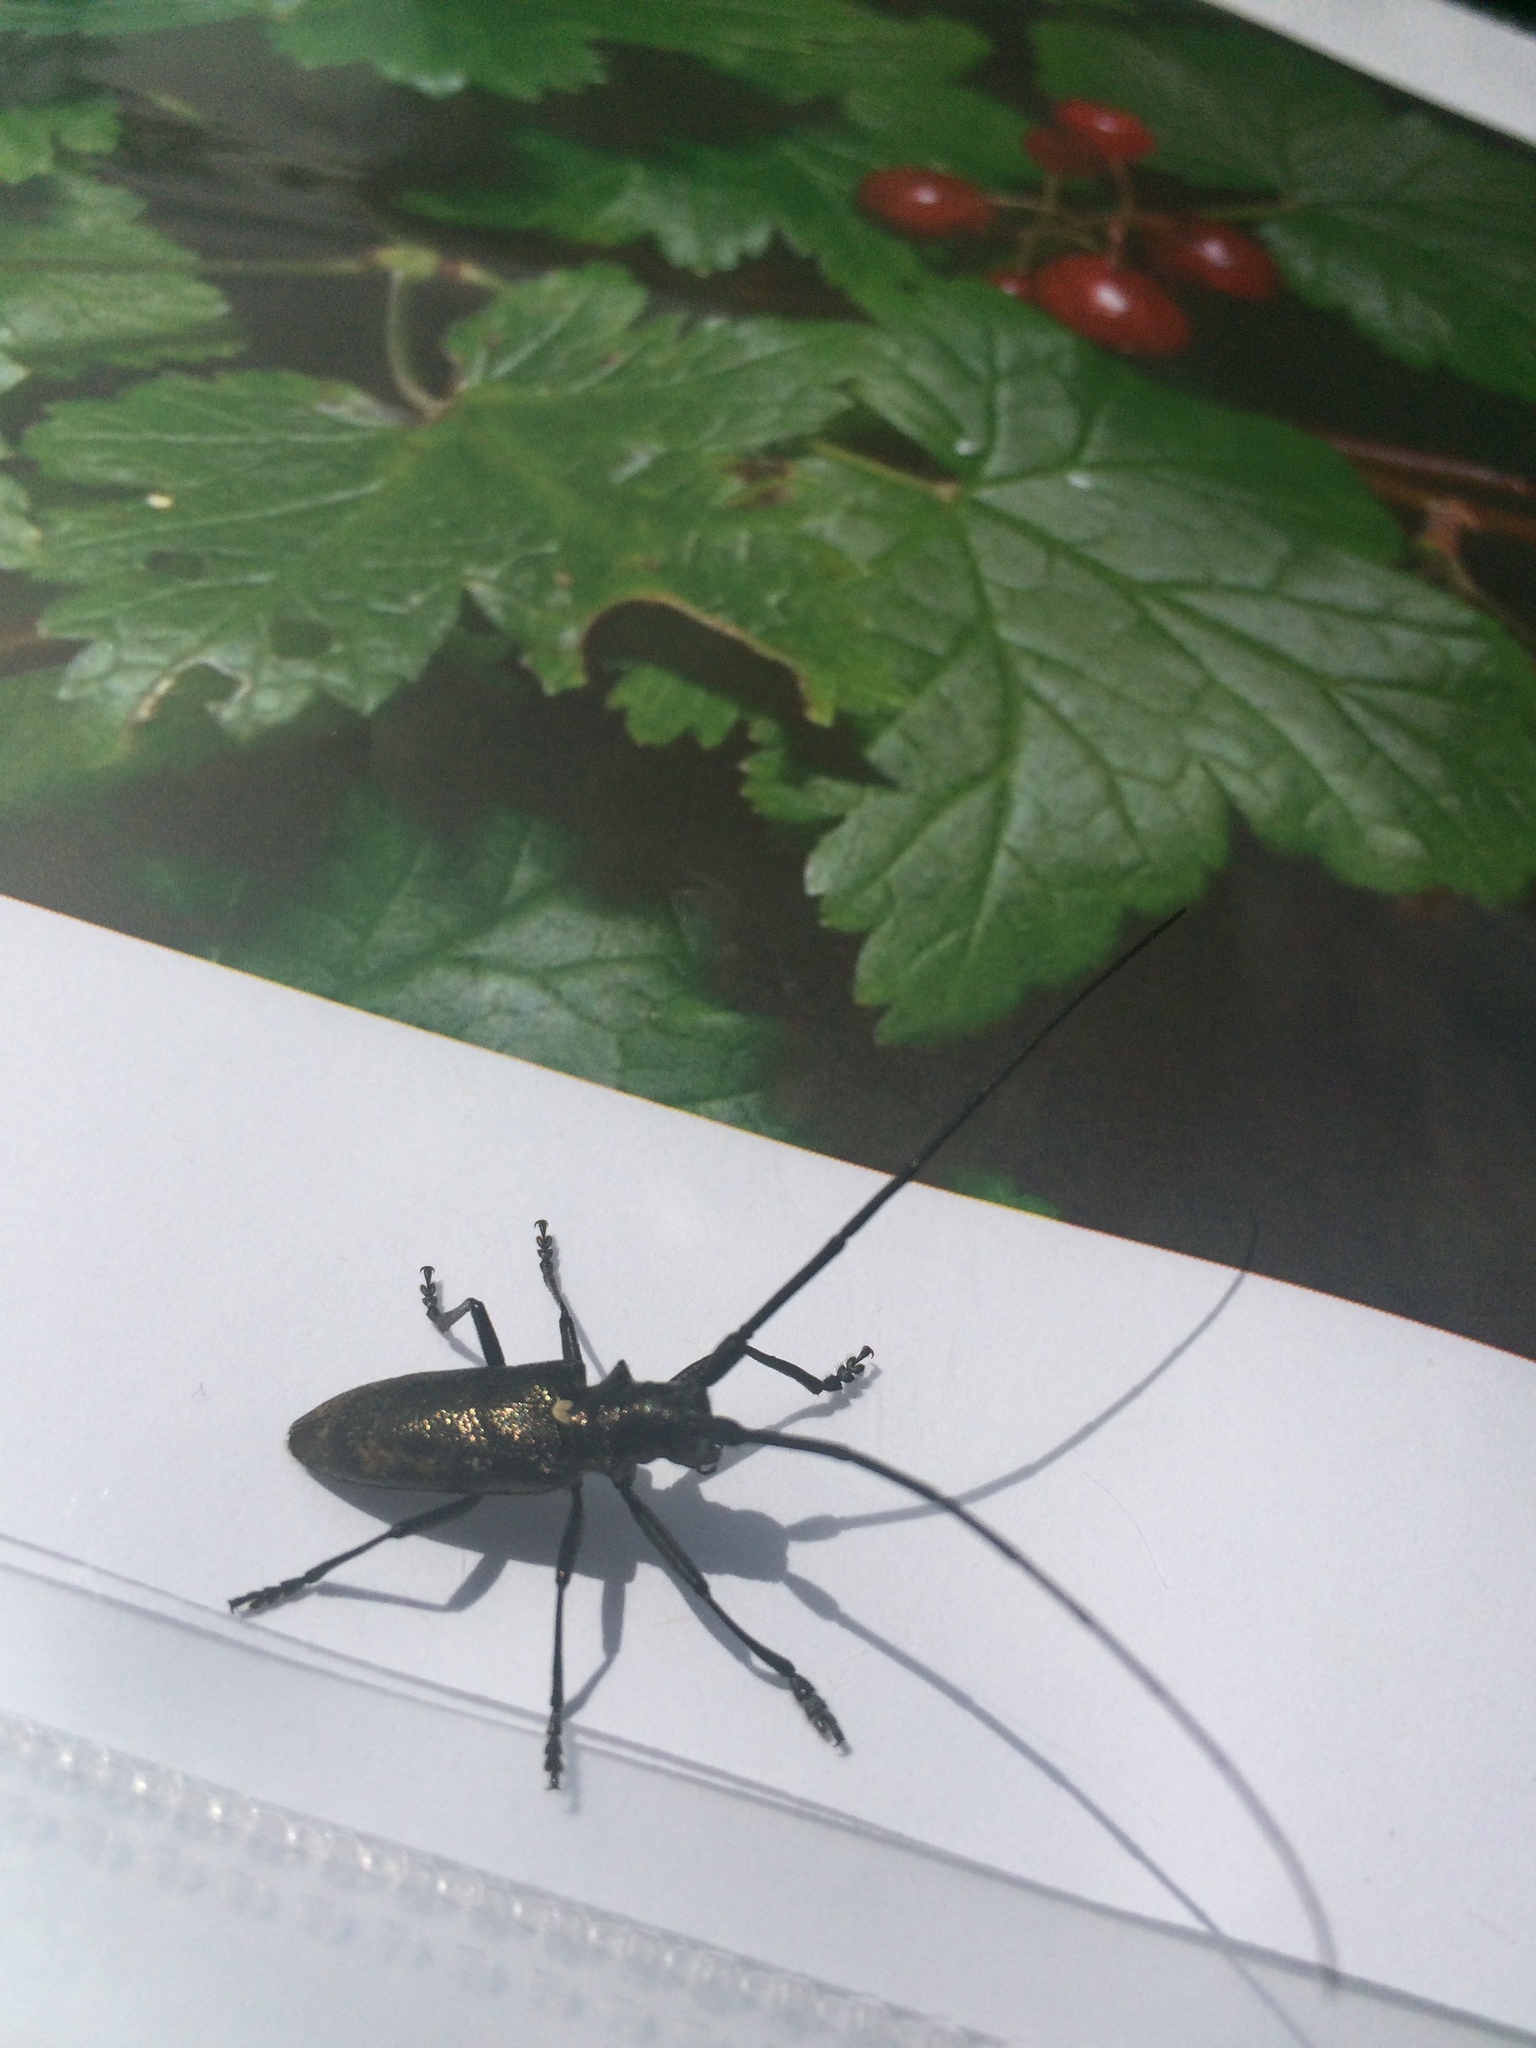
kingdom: Animalia
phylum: Arthropoda
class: Insecta
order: Coleoptera
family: Cerambycidae
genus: Monochamus
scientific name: Monochamus scutellatus
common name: White-spotted sawyer beetle
